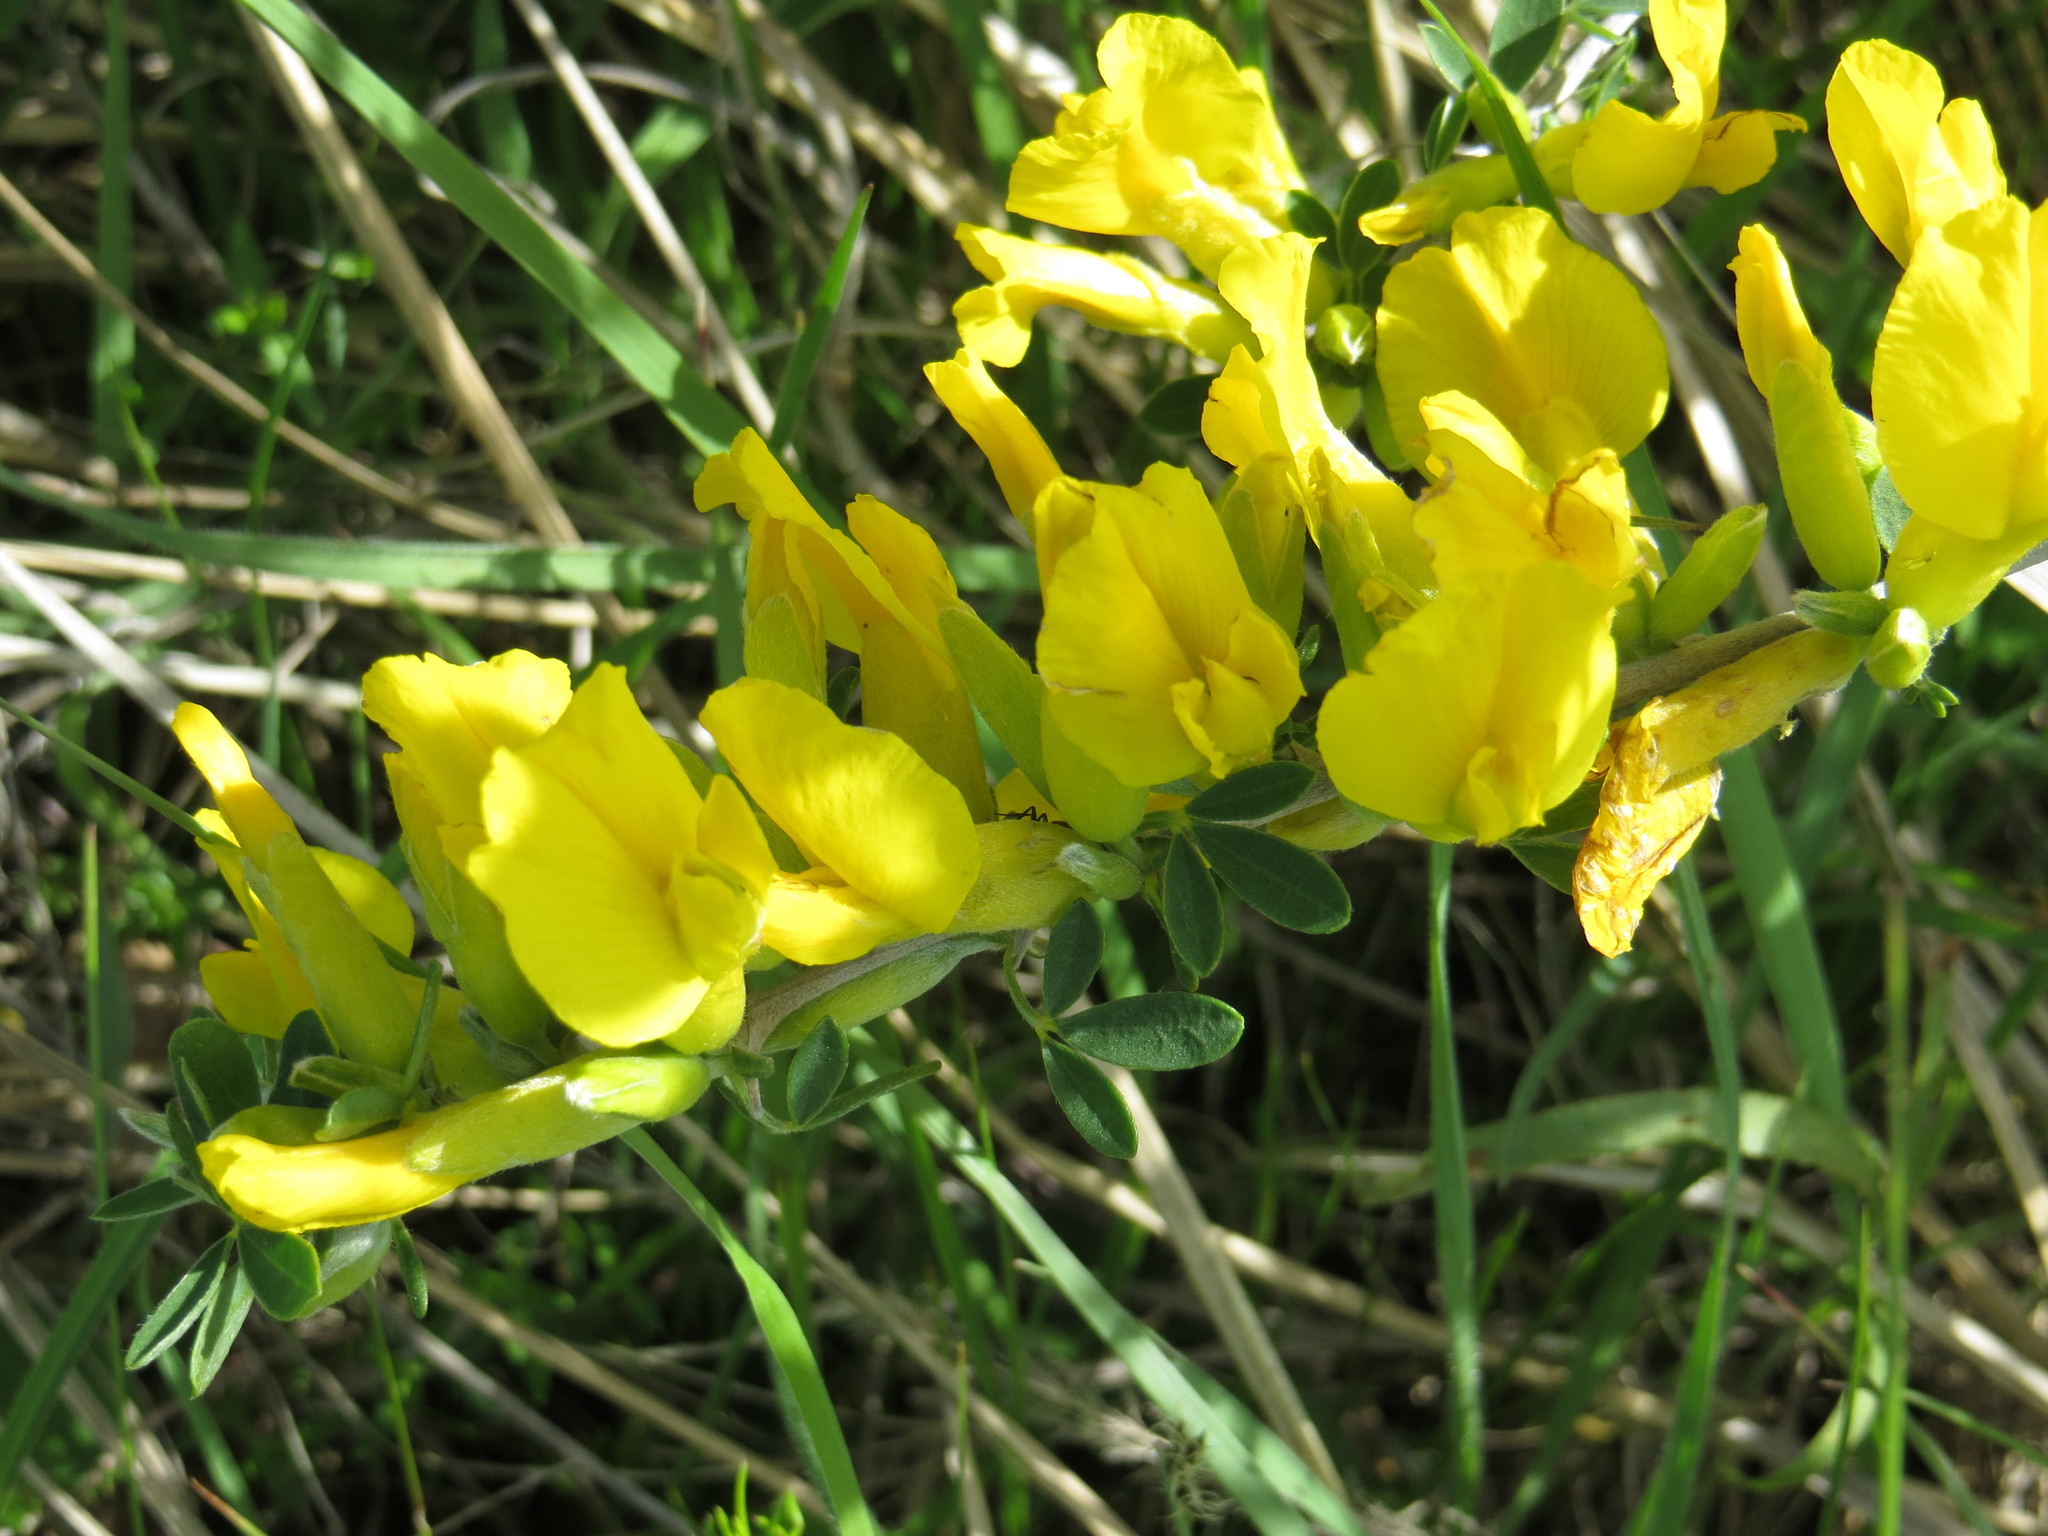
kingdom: Plantae
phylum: Tracheophyta
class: Magnoliopsida
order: Fabales
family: Fabaceae
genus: Chamaecytisus
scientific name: Chamaecytisus ruthenicus
